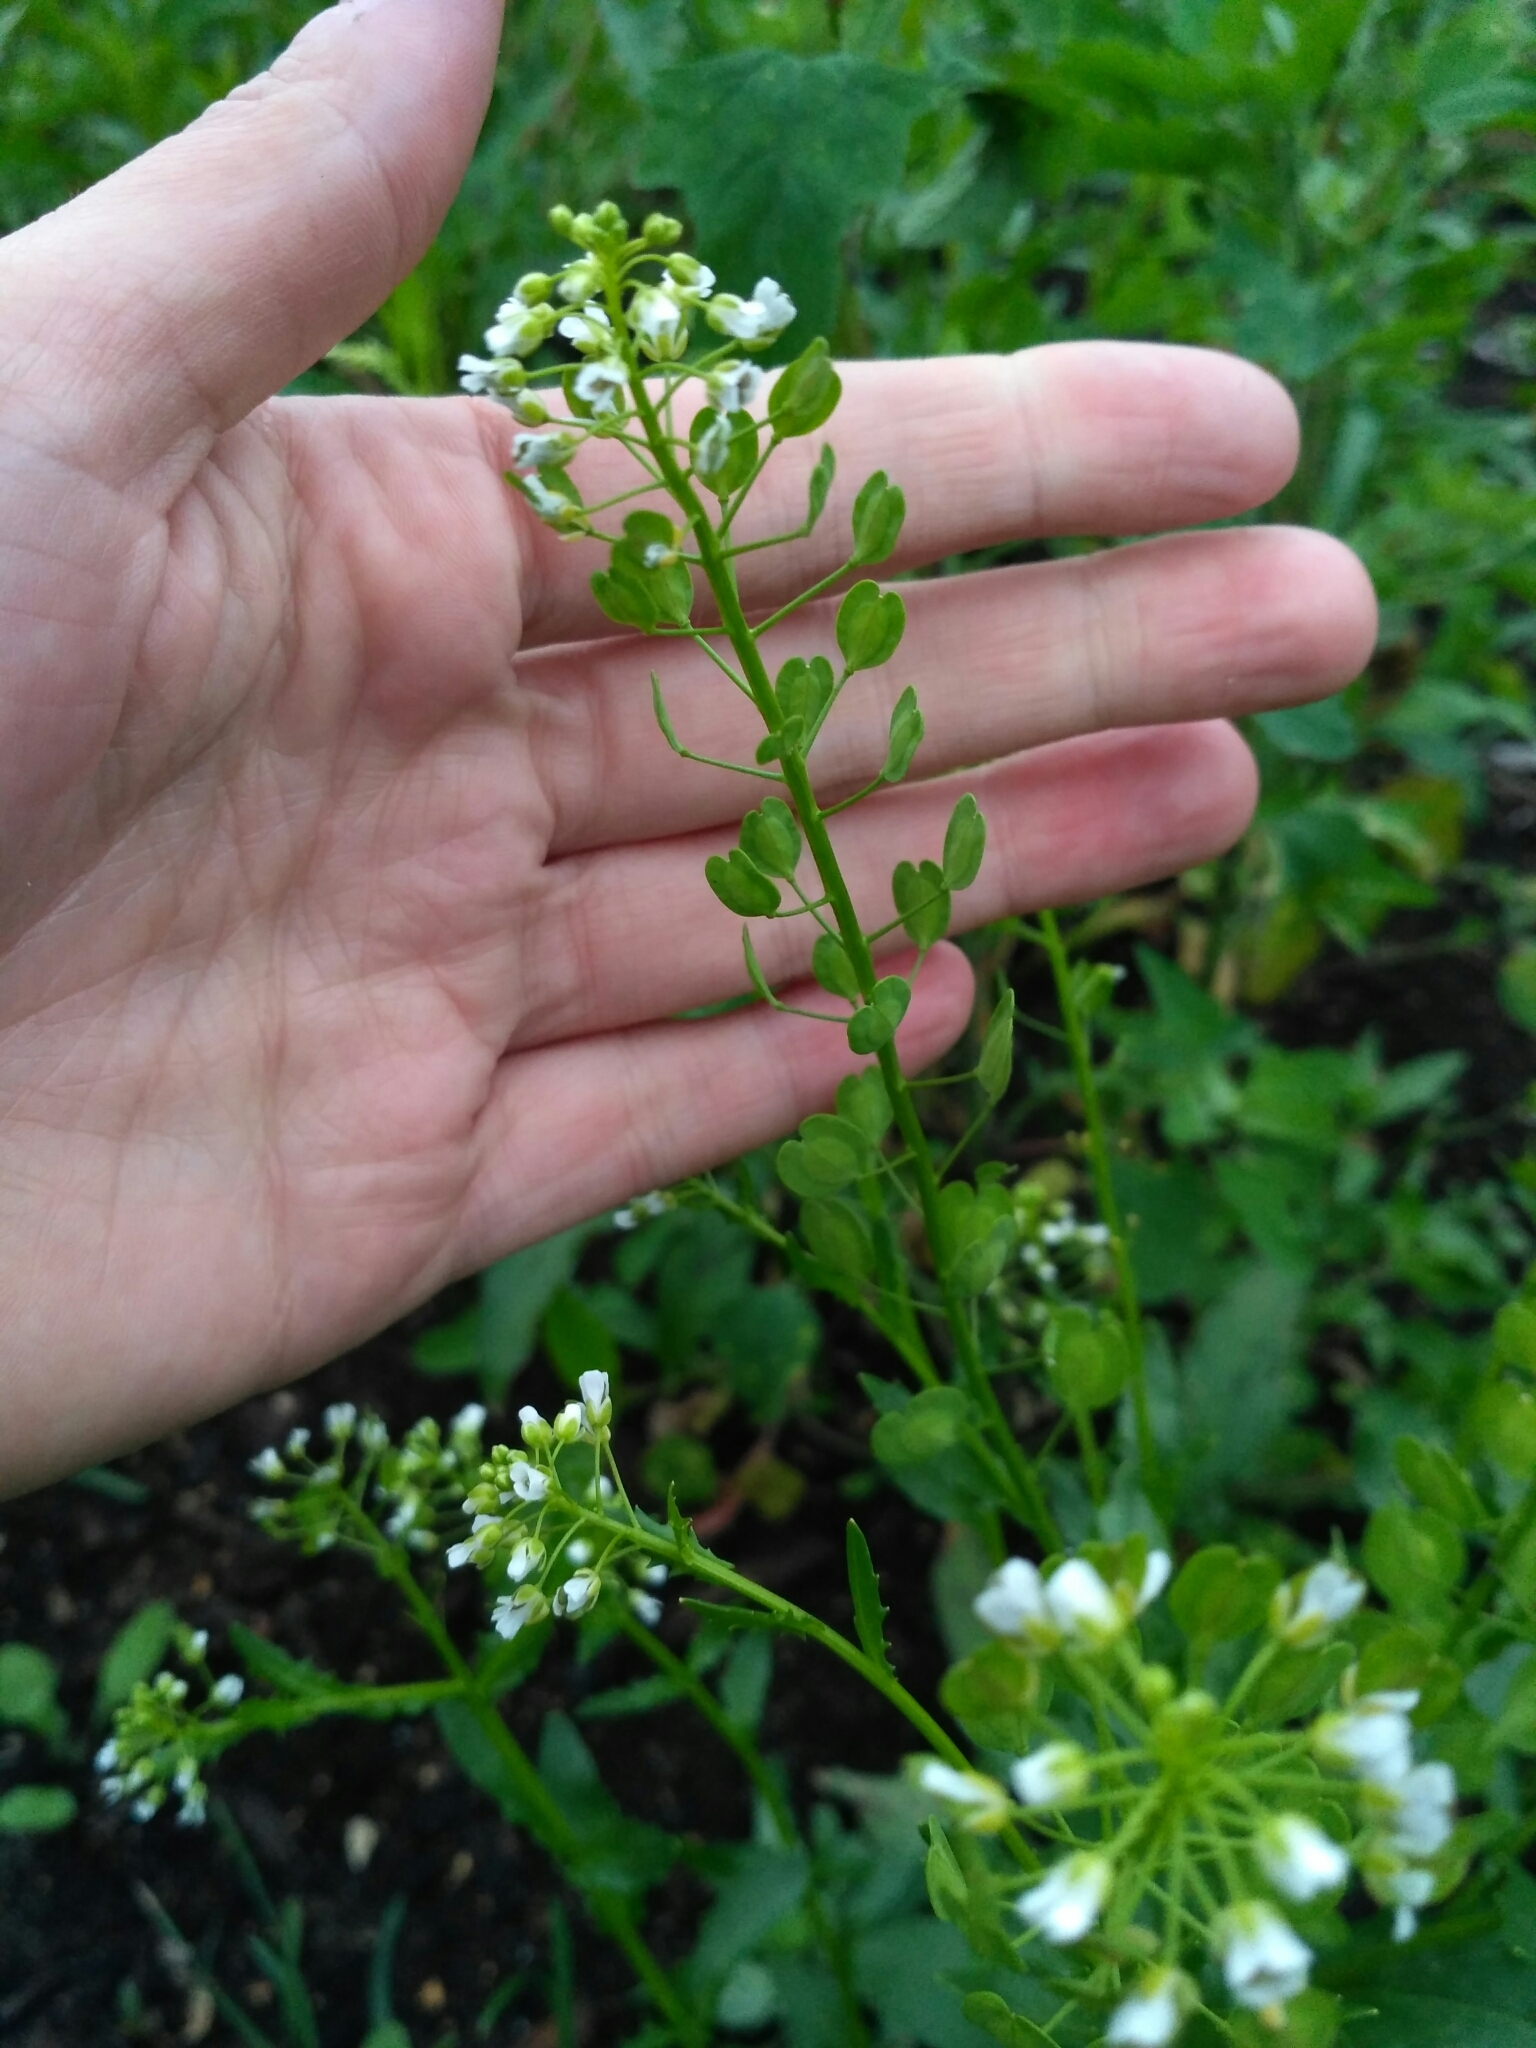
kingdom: Plantae
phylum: Tracheophyta
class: Magnoliopsida
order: Brassicales
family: Brassicaceae
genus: Thlaspi
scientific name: Thlaspi arvense
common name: Field pennycress
